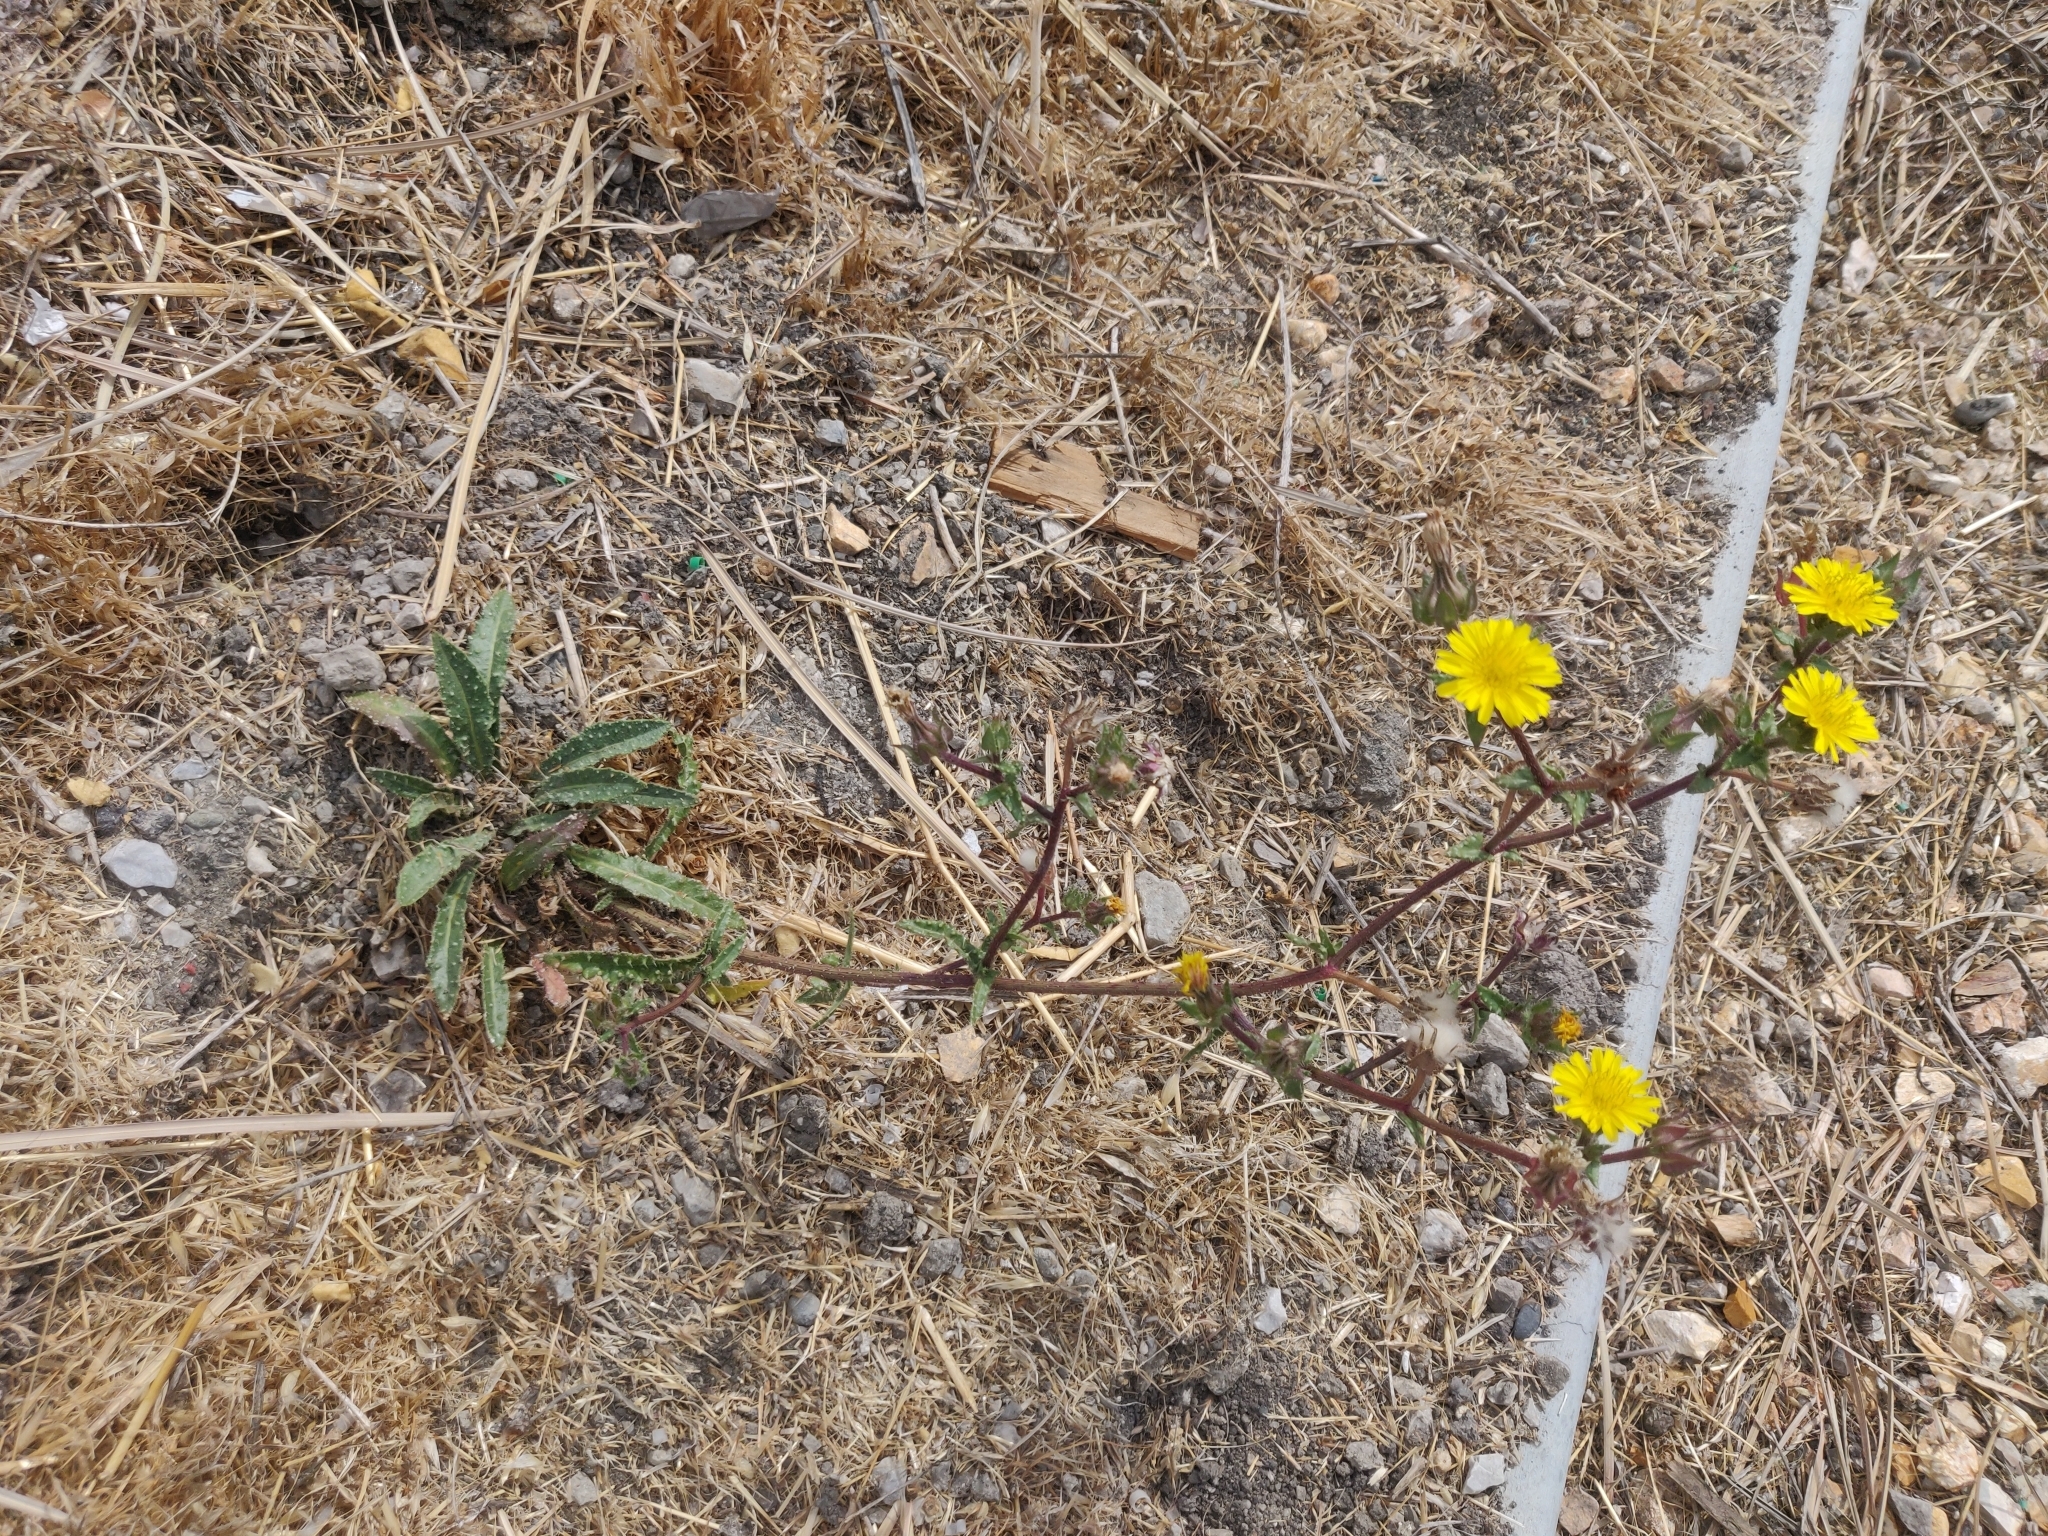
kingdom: Plantae
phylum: Tracheophyta
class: Magnoliopsida
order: Asterales
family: Asteraceae
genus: Helminthotheca
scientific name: Helminthotheca echioides
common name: Ox-tongue
